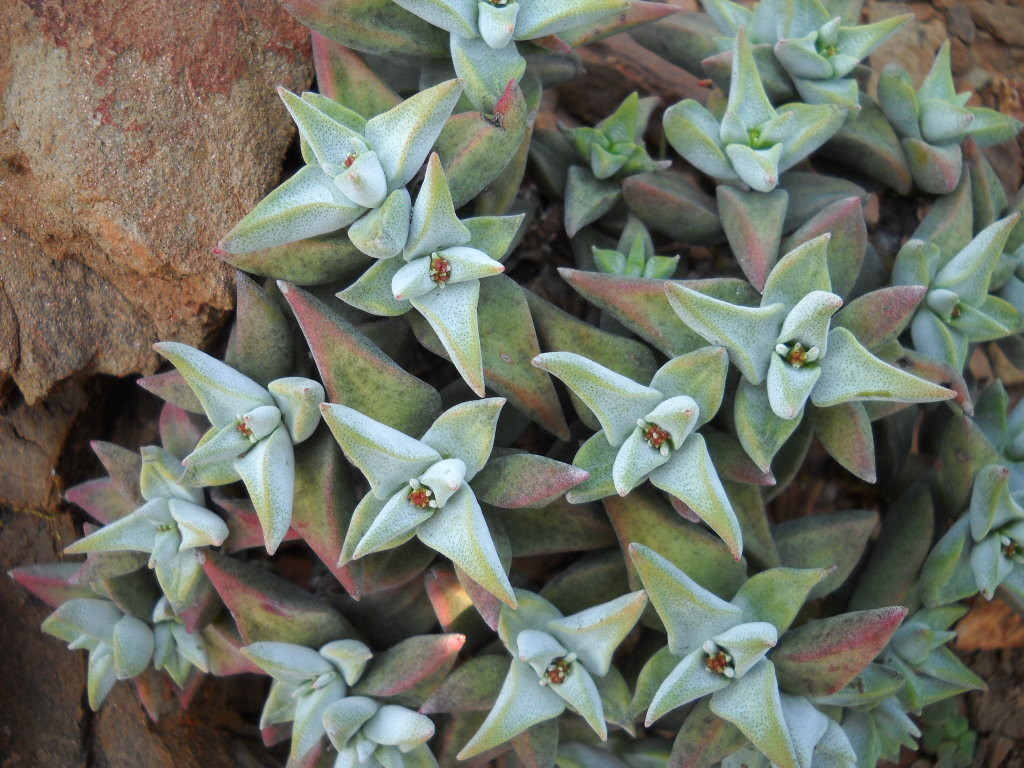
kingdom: Plantae
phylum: Tracheophyta
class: Magnoliopsida
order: Saxifragales
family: Crassulaceae
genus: Crassula
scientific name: Crassula deltoidea
